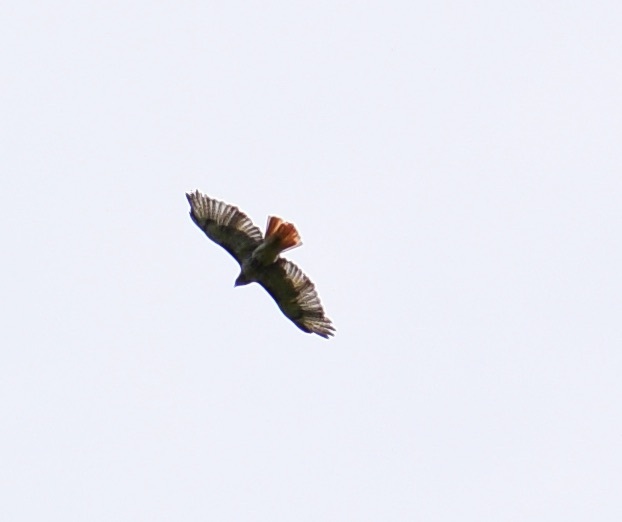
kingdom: Animalia
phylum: Chordata
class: Aves
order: Accipitriformes
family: Accipitridae
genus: Buteo
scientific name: Buteo jamaicensis
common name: Red-tailed hawk
